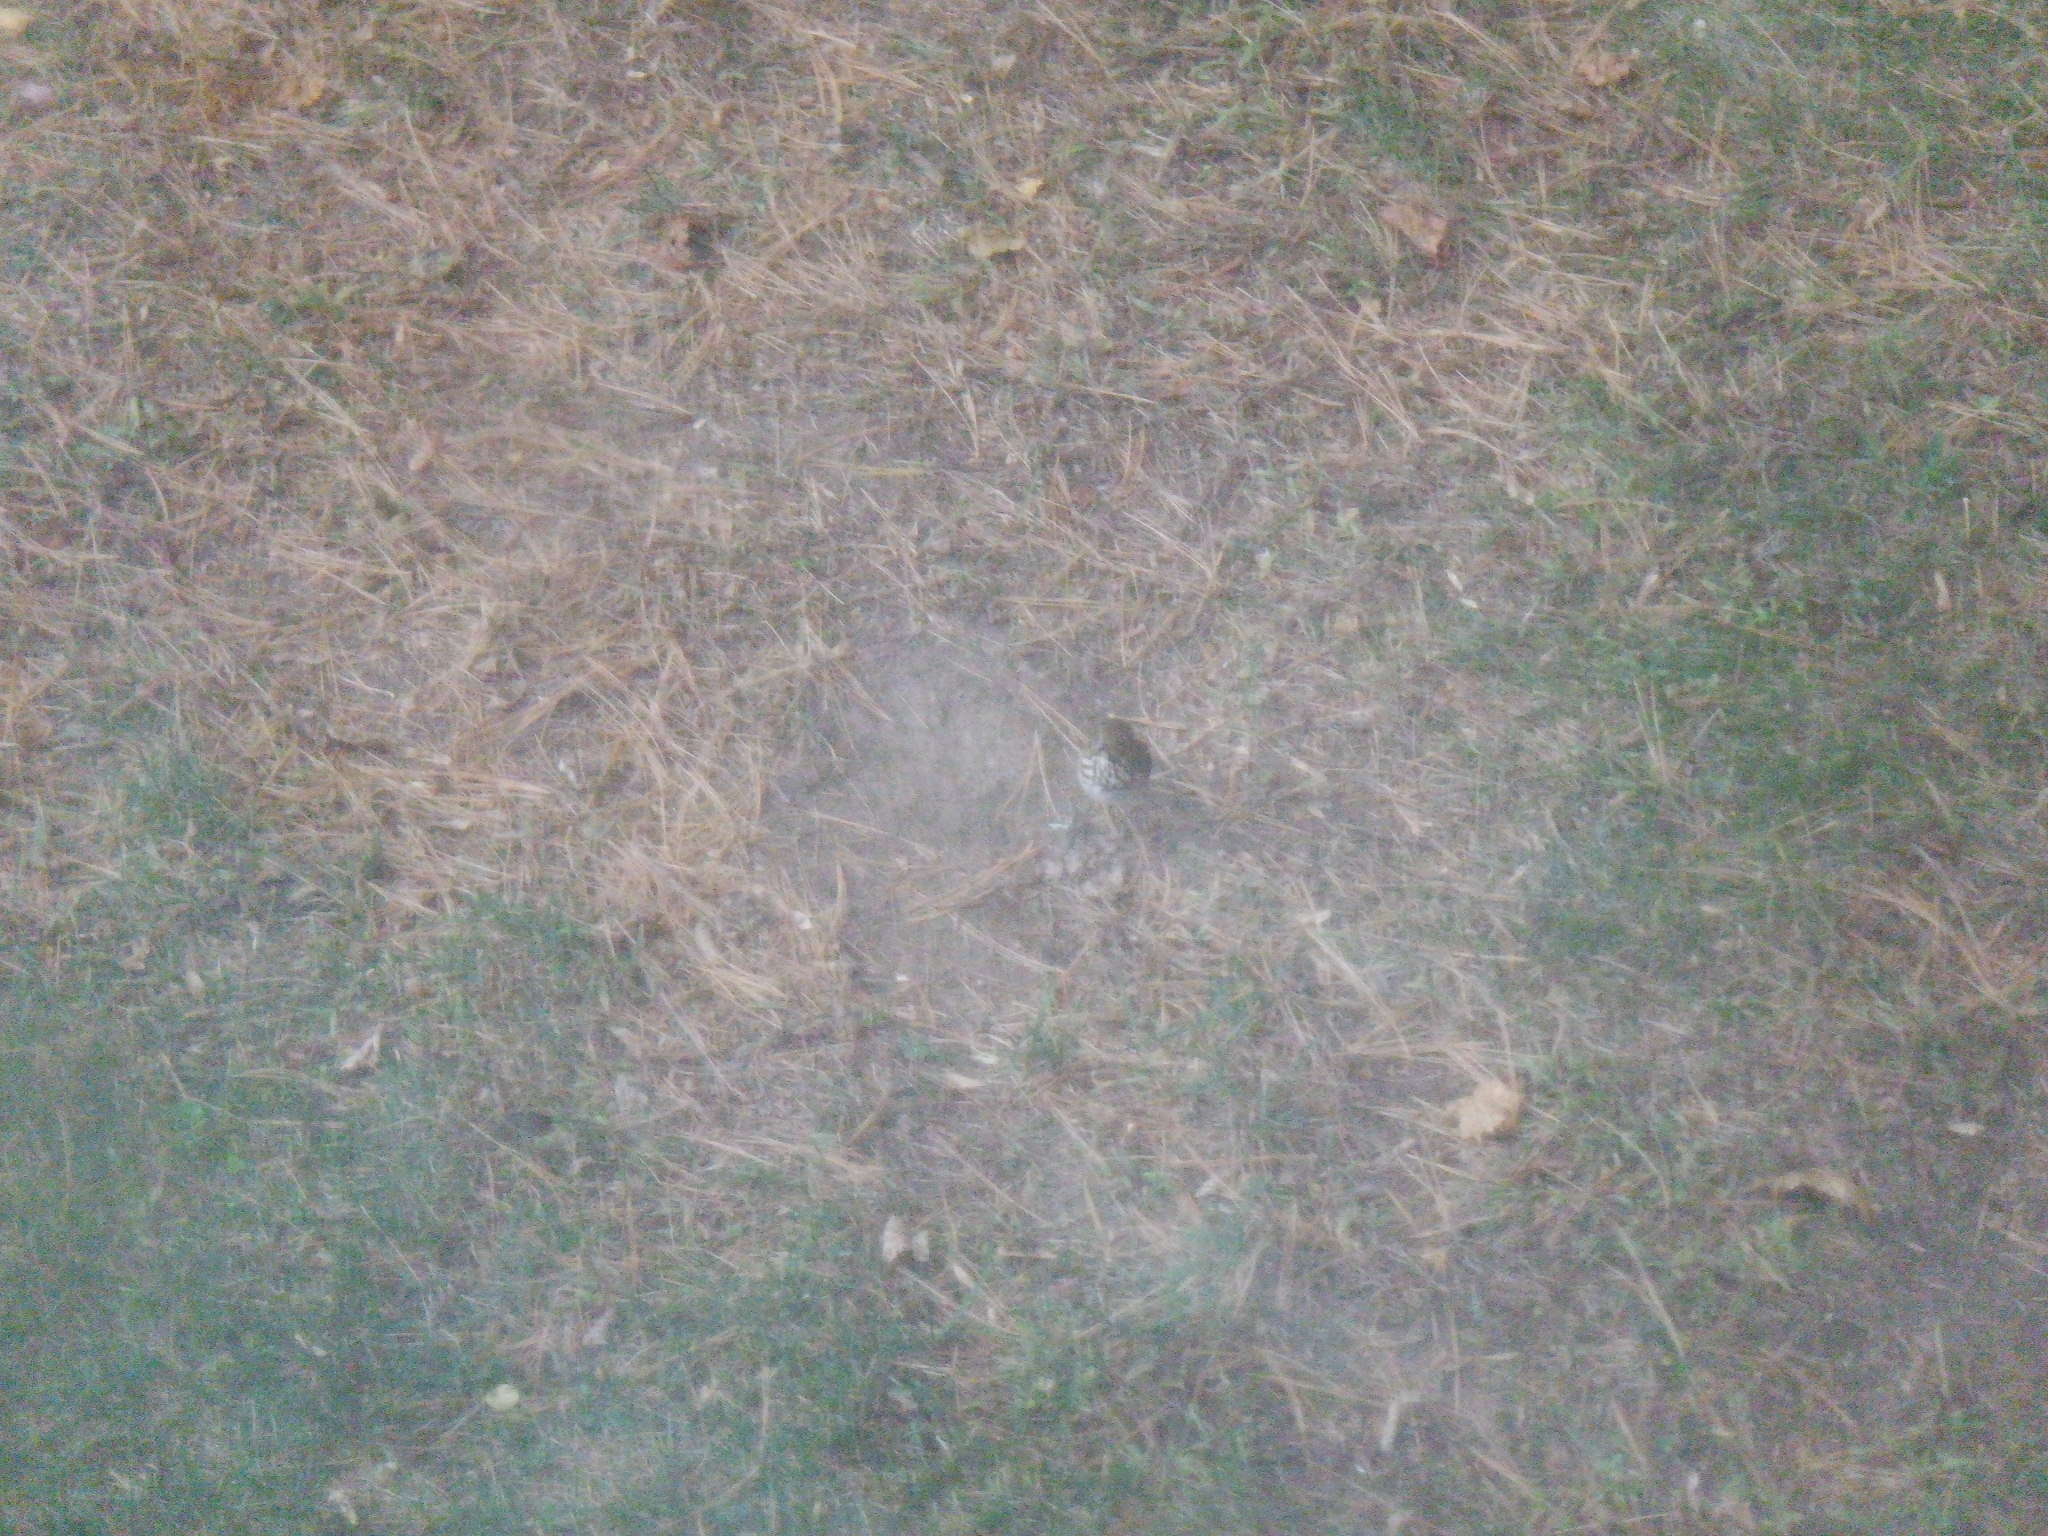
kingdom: Animalia
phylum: Chordata
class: Aves
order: Passeriformes
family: Turdidae
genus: Catharus
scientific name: Catharus guttatus
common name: Hermit thrush
